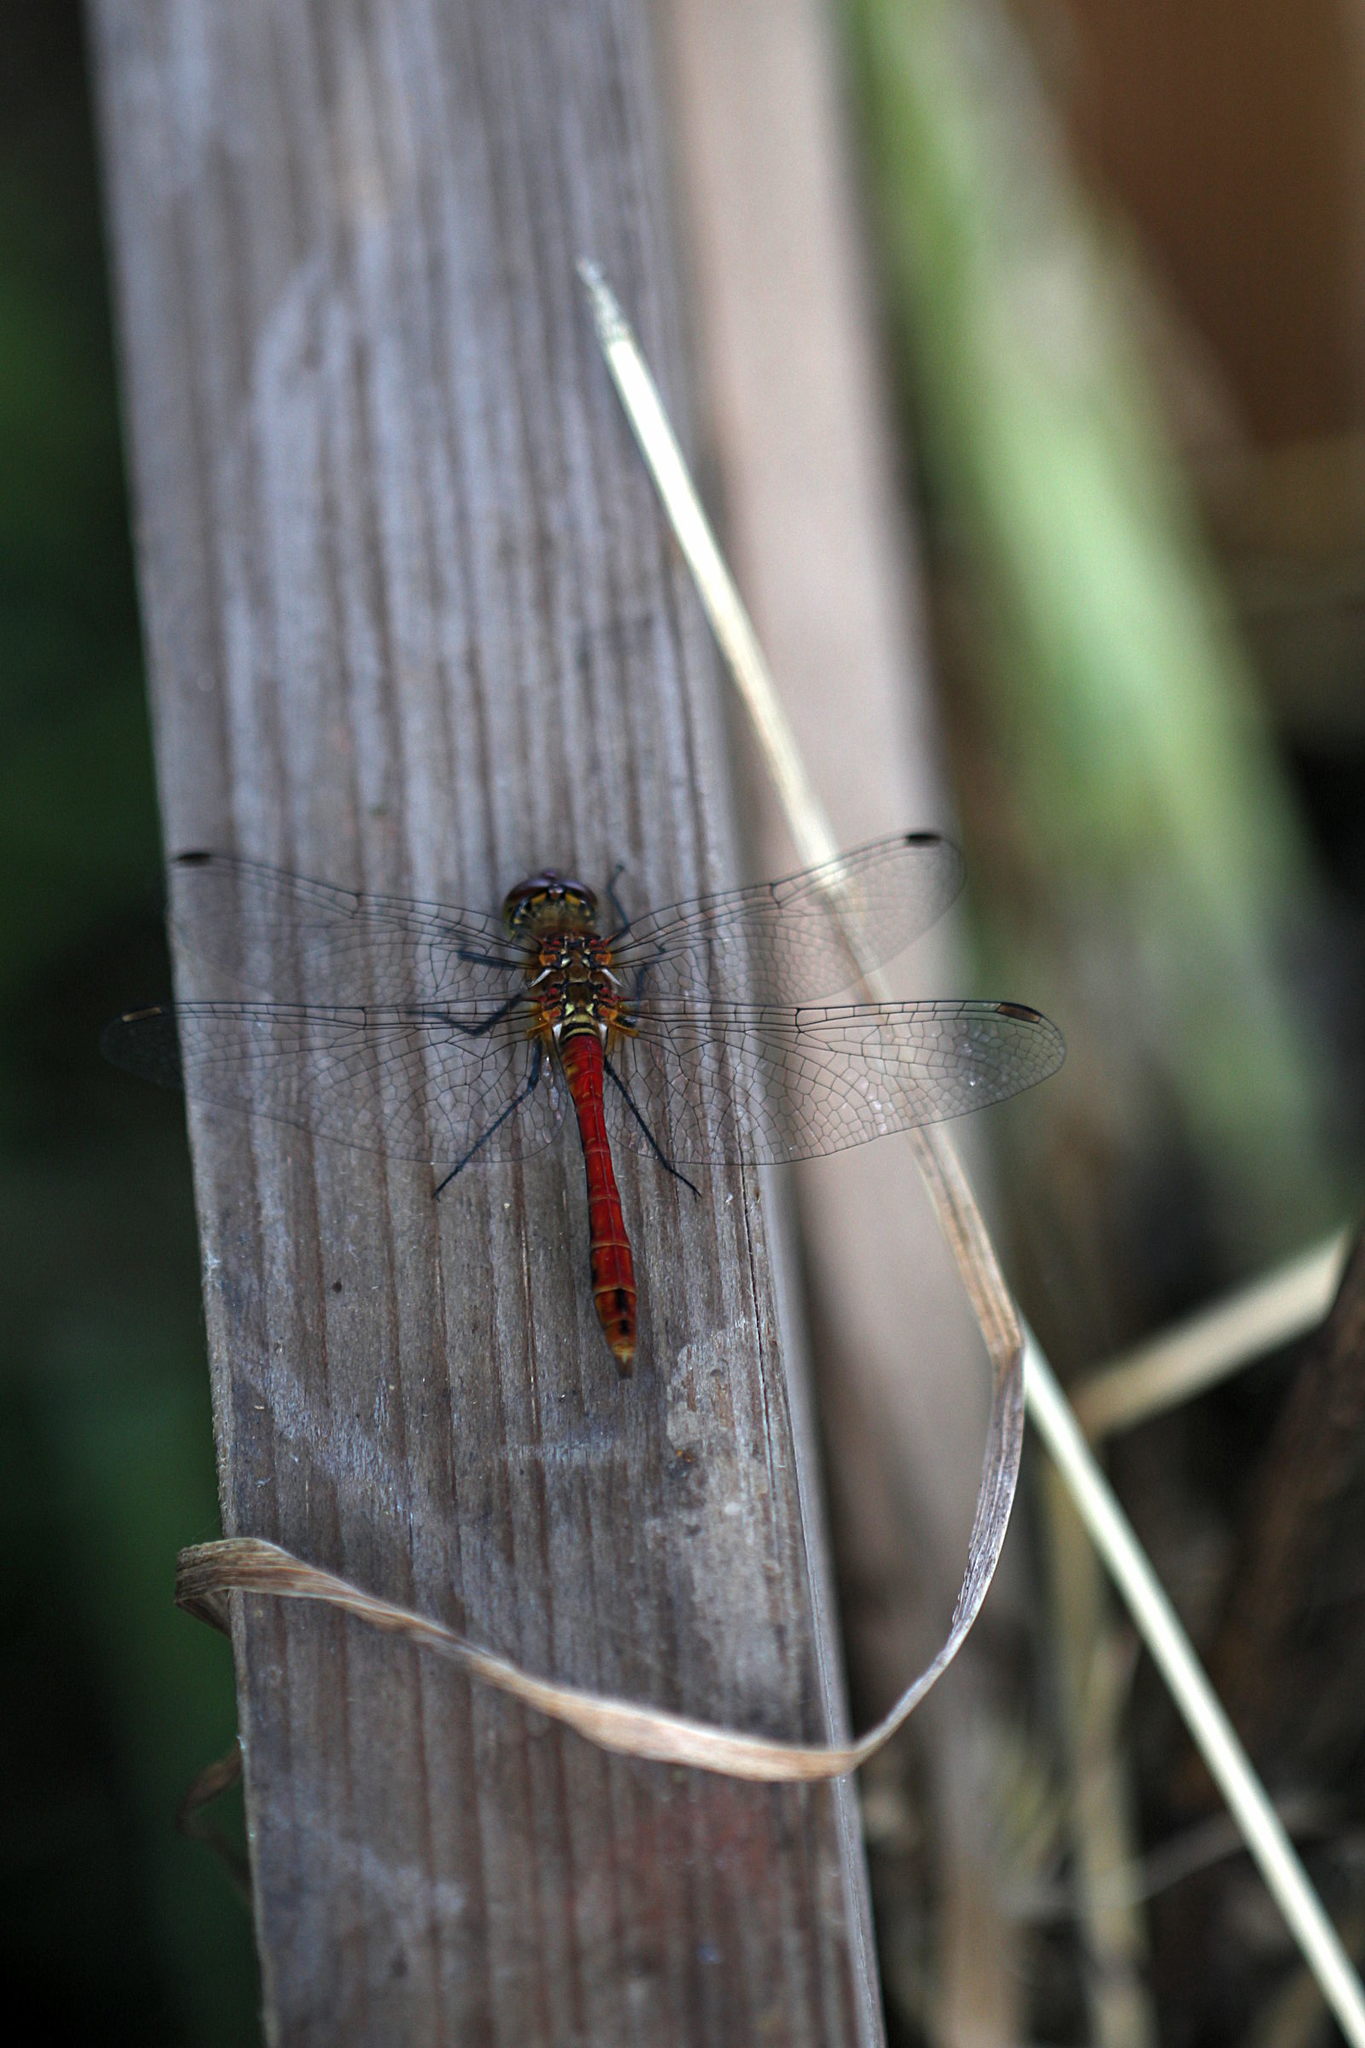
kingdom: Animalia
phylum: Arthropoda
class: Insecta
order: Odonata
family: Libellulidae
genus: Sympetrum
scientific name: Sympetrum sanguineum
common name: Ruddy darter
